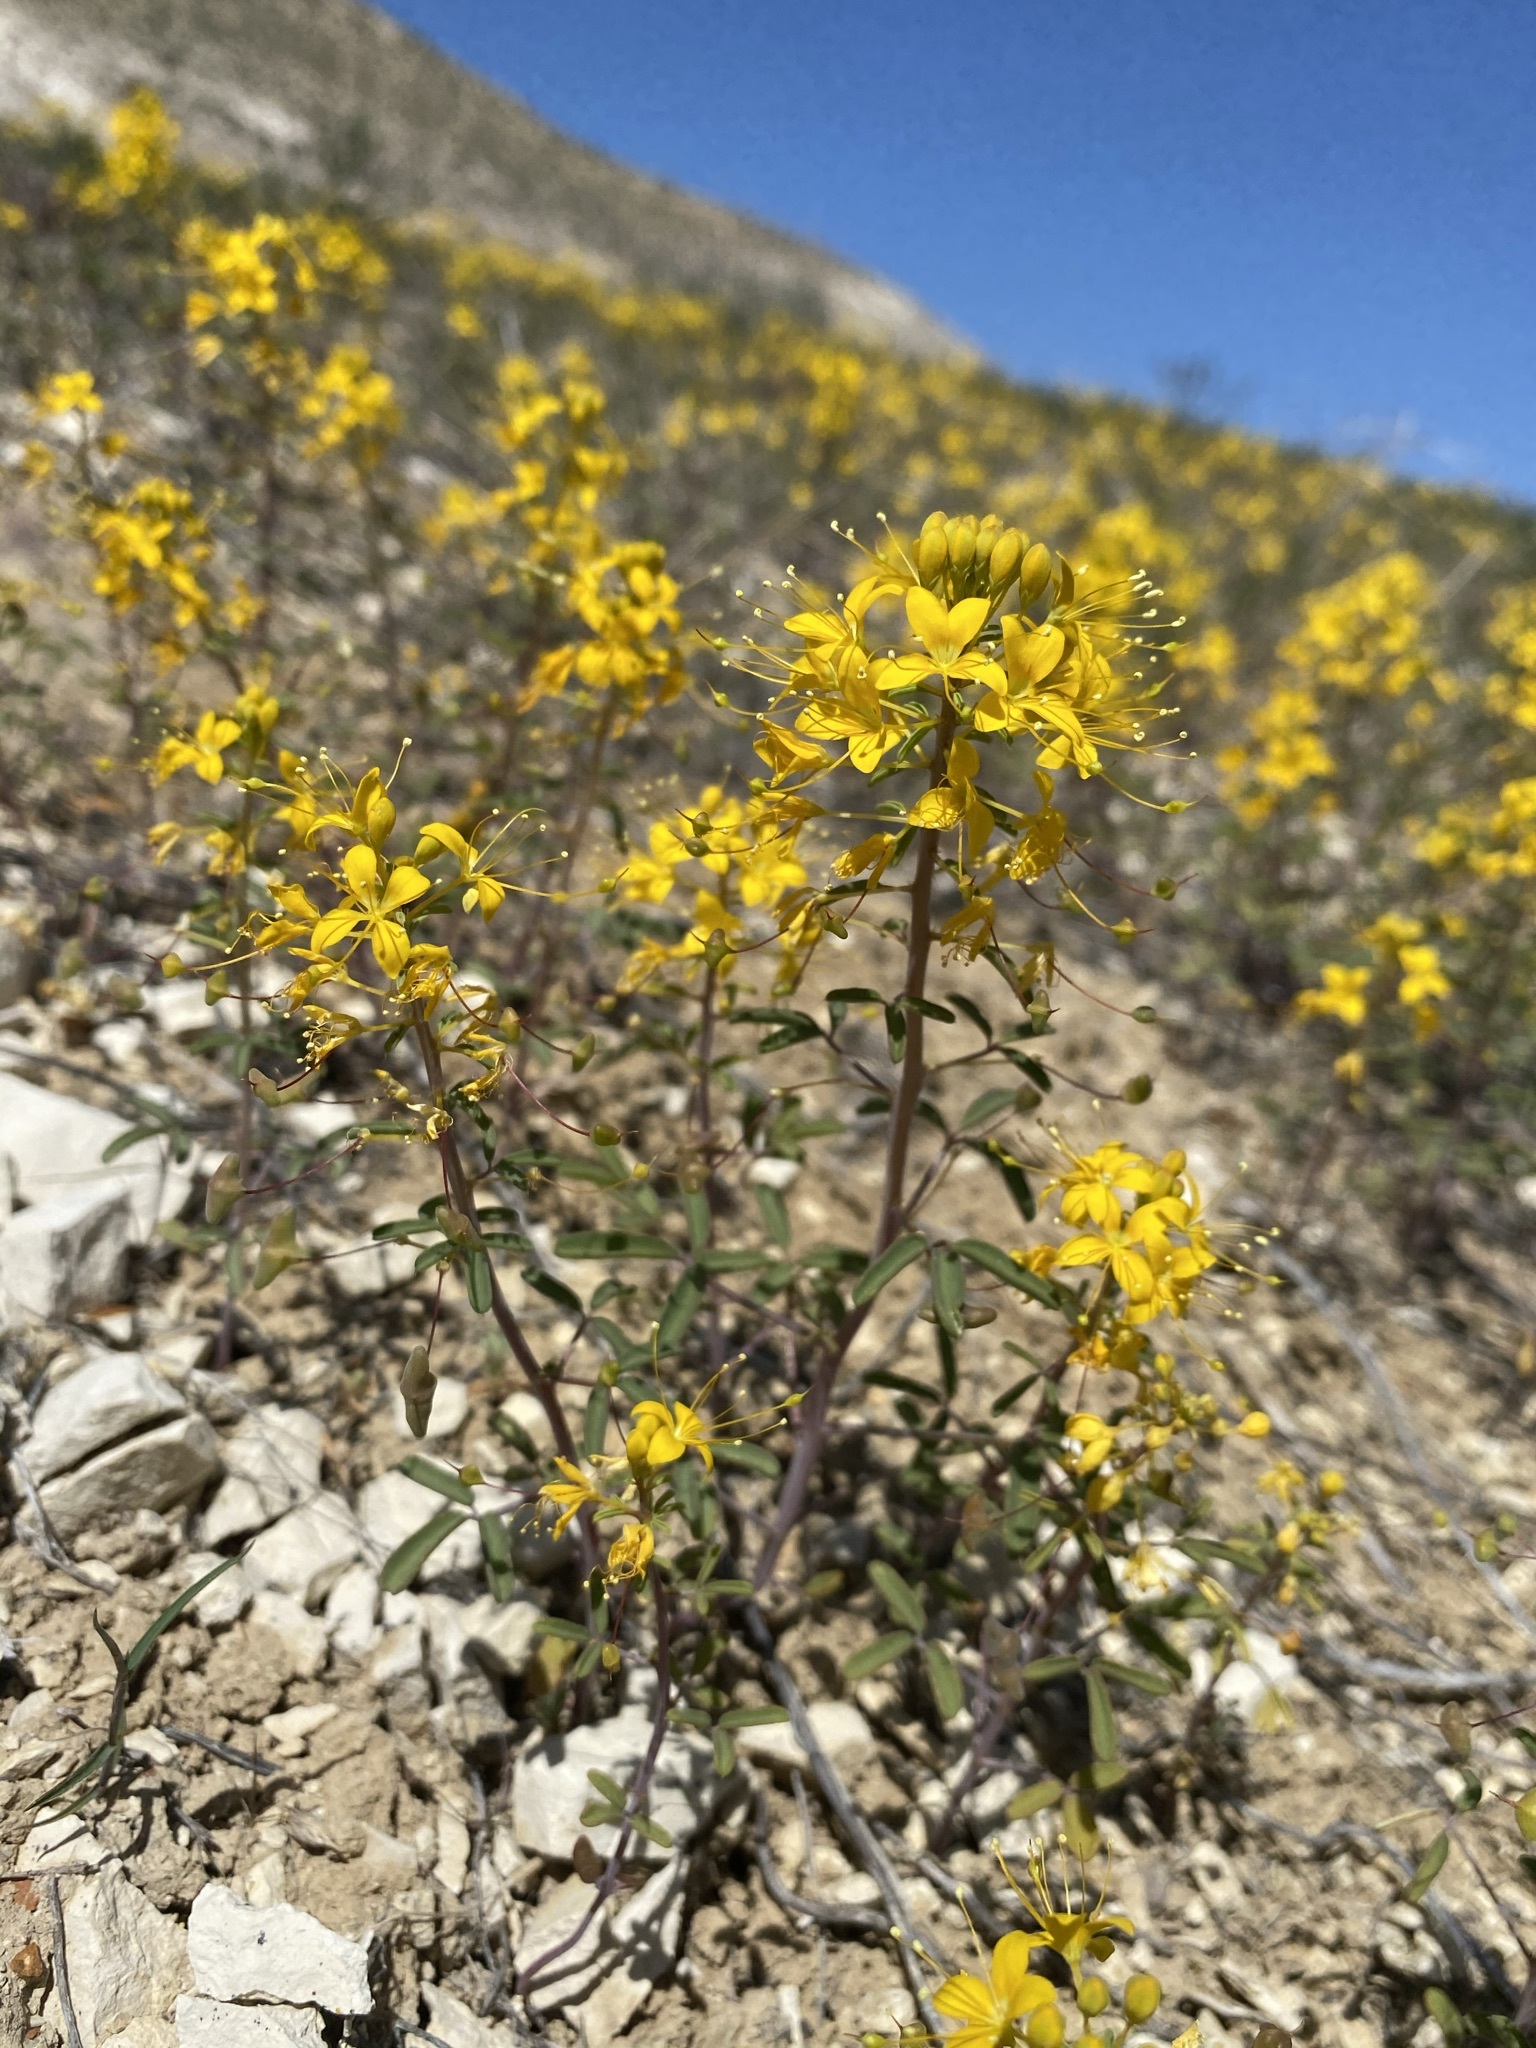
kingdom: Plantae
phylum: Tracheophyta
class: Magnoliopsida
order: Brassicales
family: Cleomaceae
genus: Cleomella
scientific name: Cleomella hillmanii
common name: Desert stinkweed
